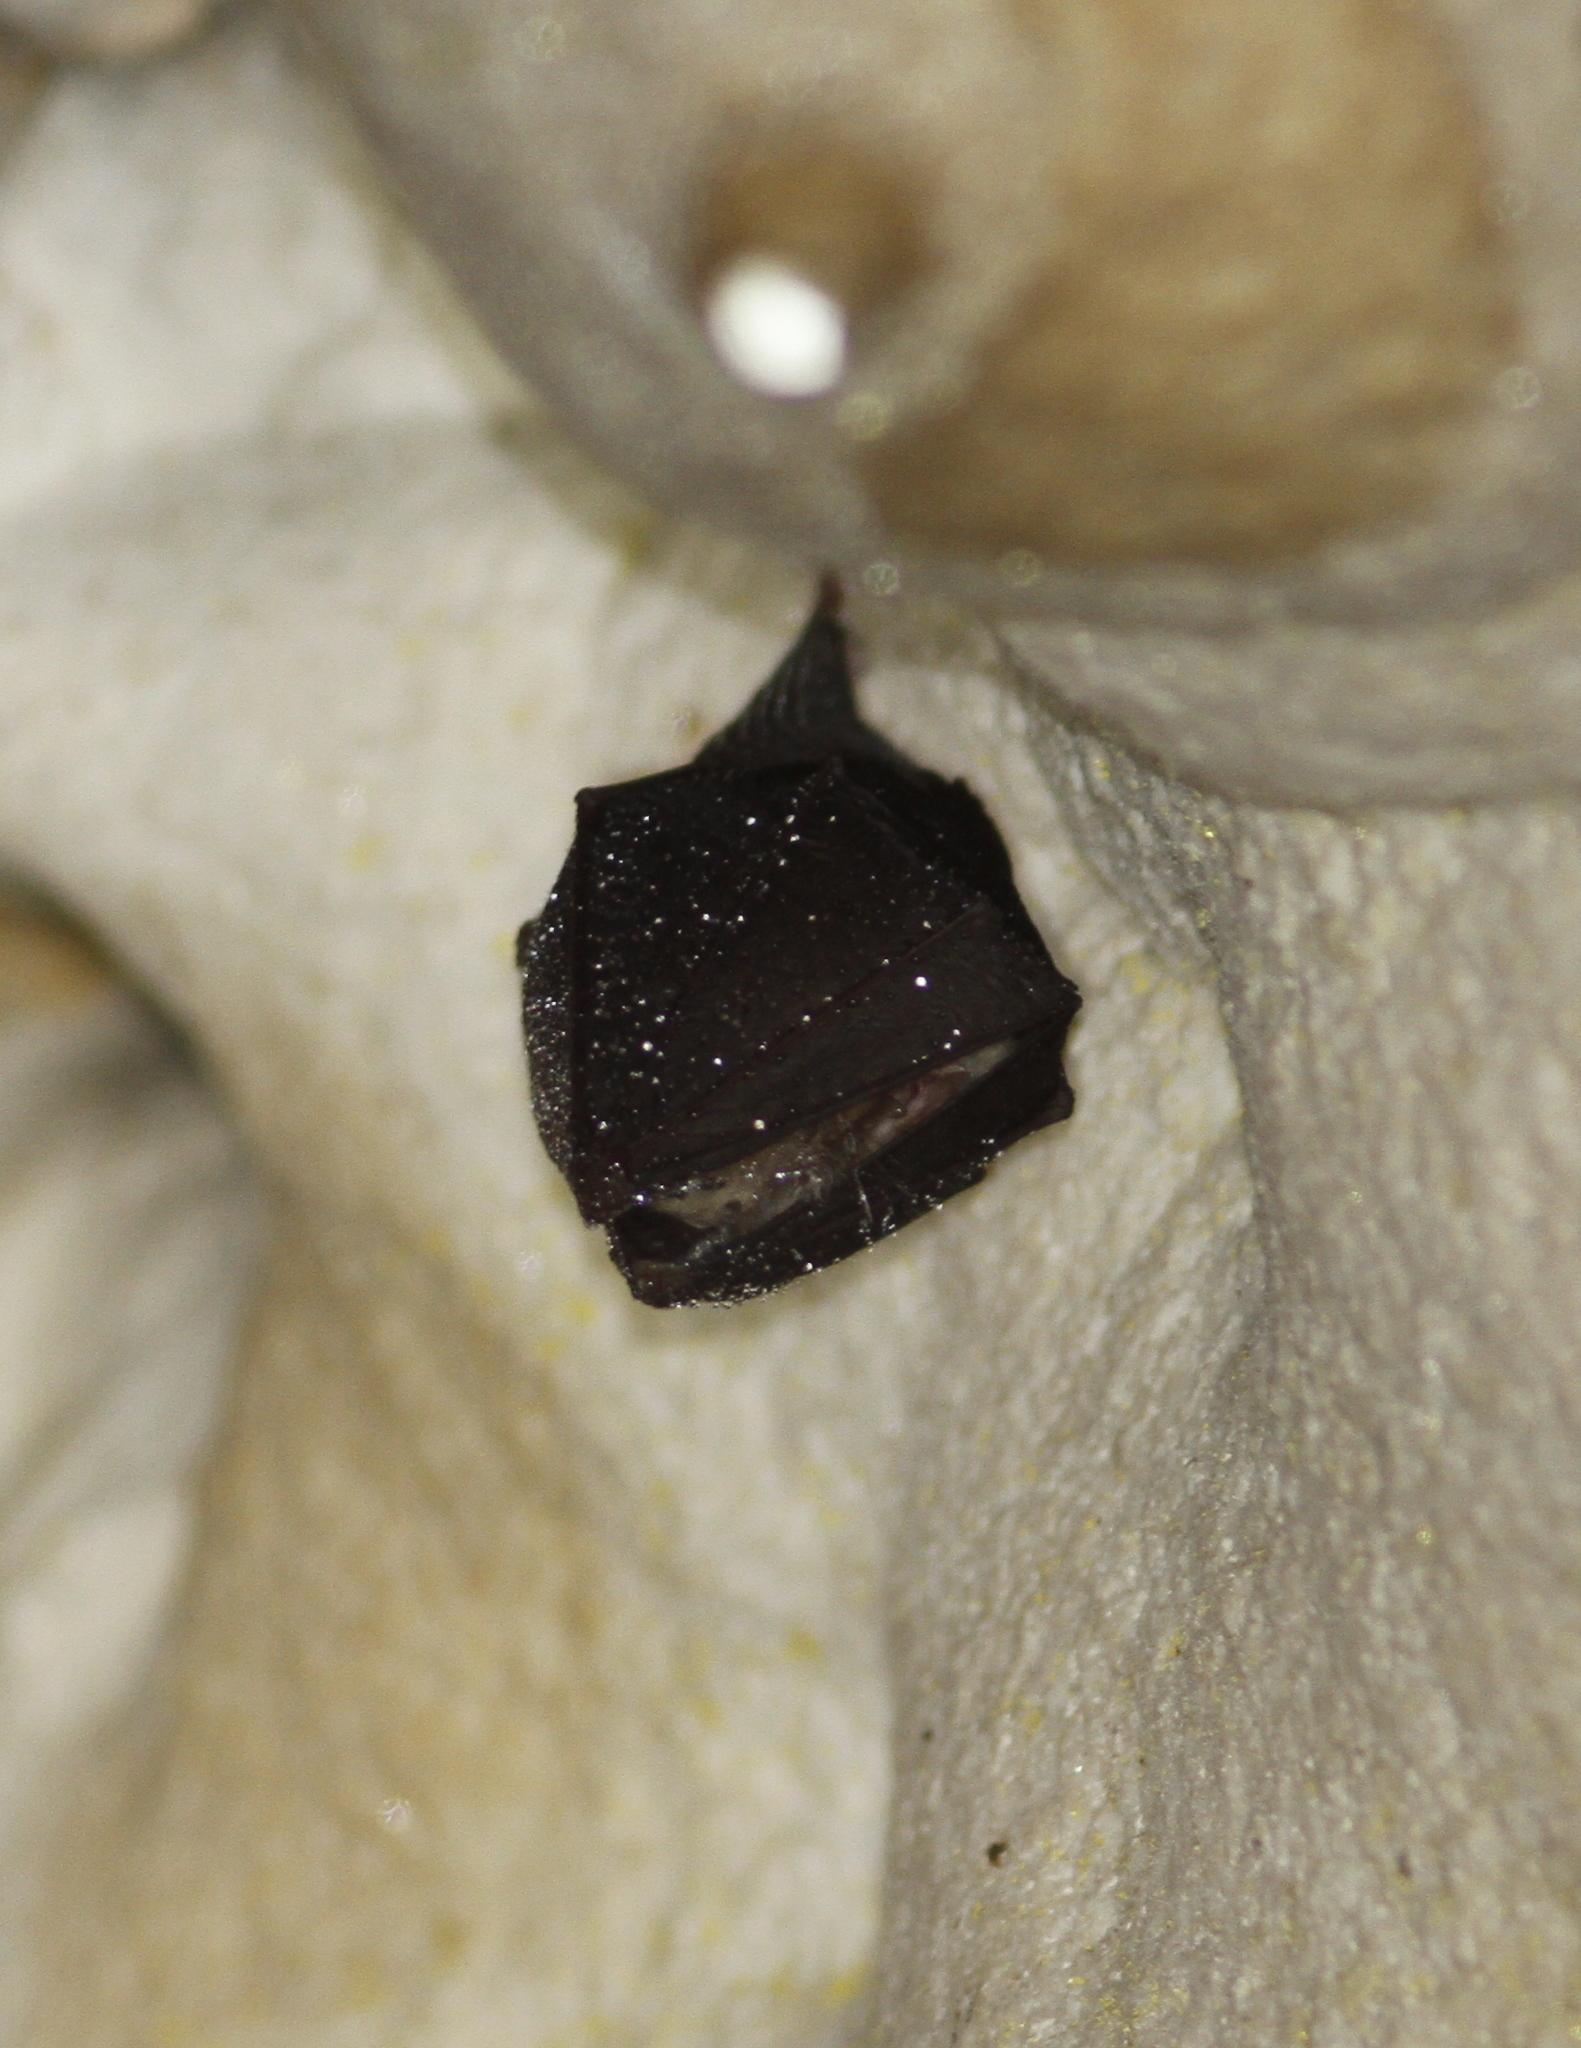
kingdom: Animalia
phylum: Chordata
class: Mammalia
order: Chiroptera
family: Rhinolophidae
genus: Rhinolophus
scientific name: Rhinolophus hipposideros
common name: Lesser horseshoe bat
